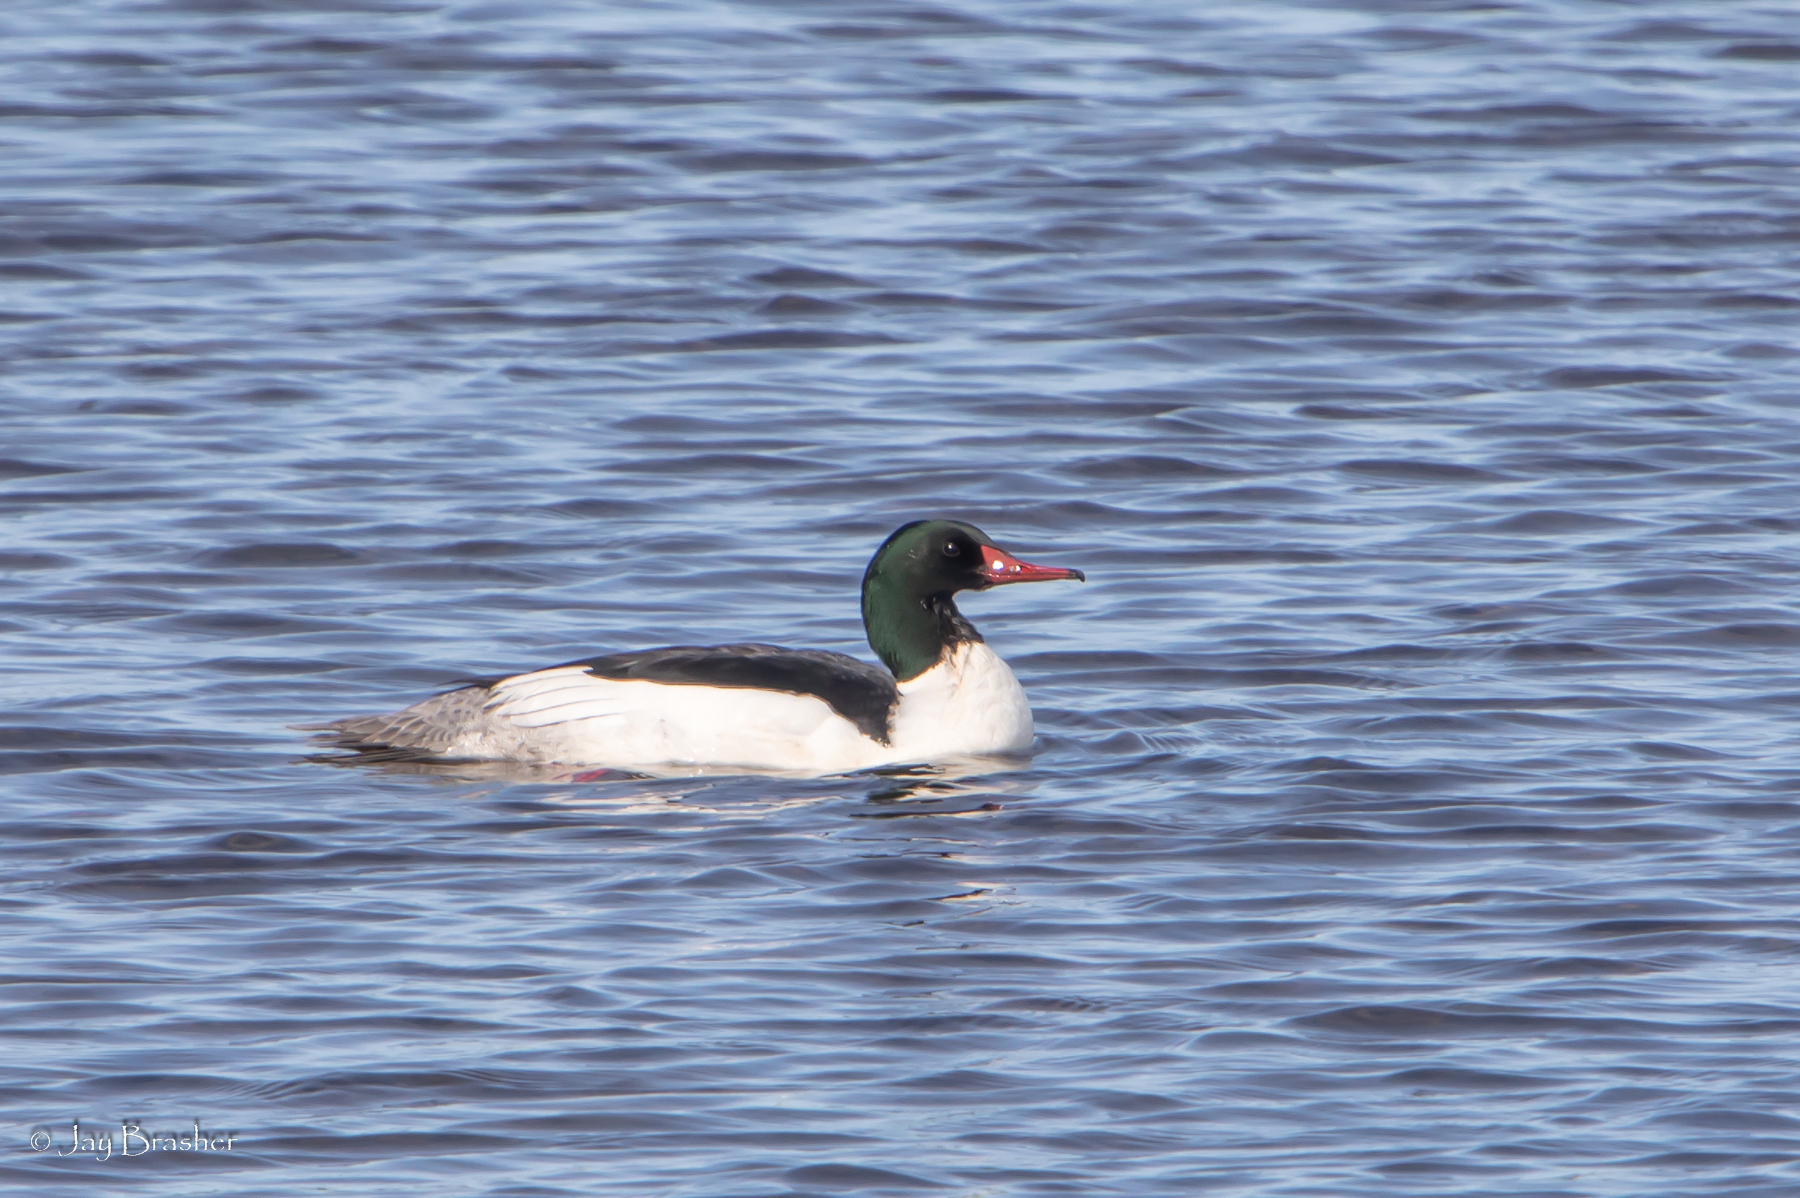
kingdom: Animalia
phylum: Chordata
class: Aves
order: Anseriformes
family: Anatidae
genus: Mergus
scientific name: Mergus merganser
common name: Common merganser
